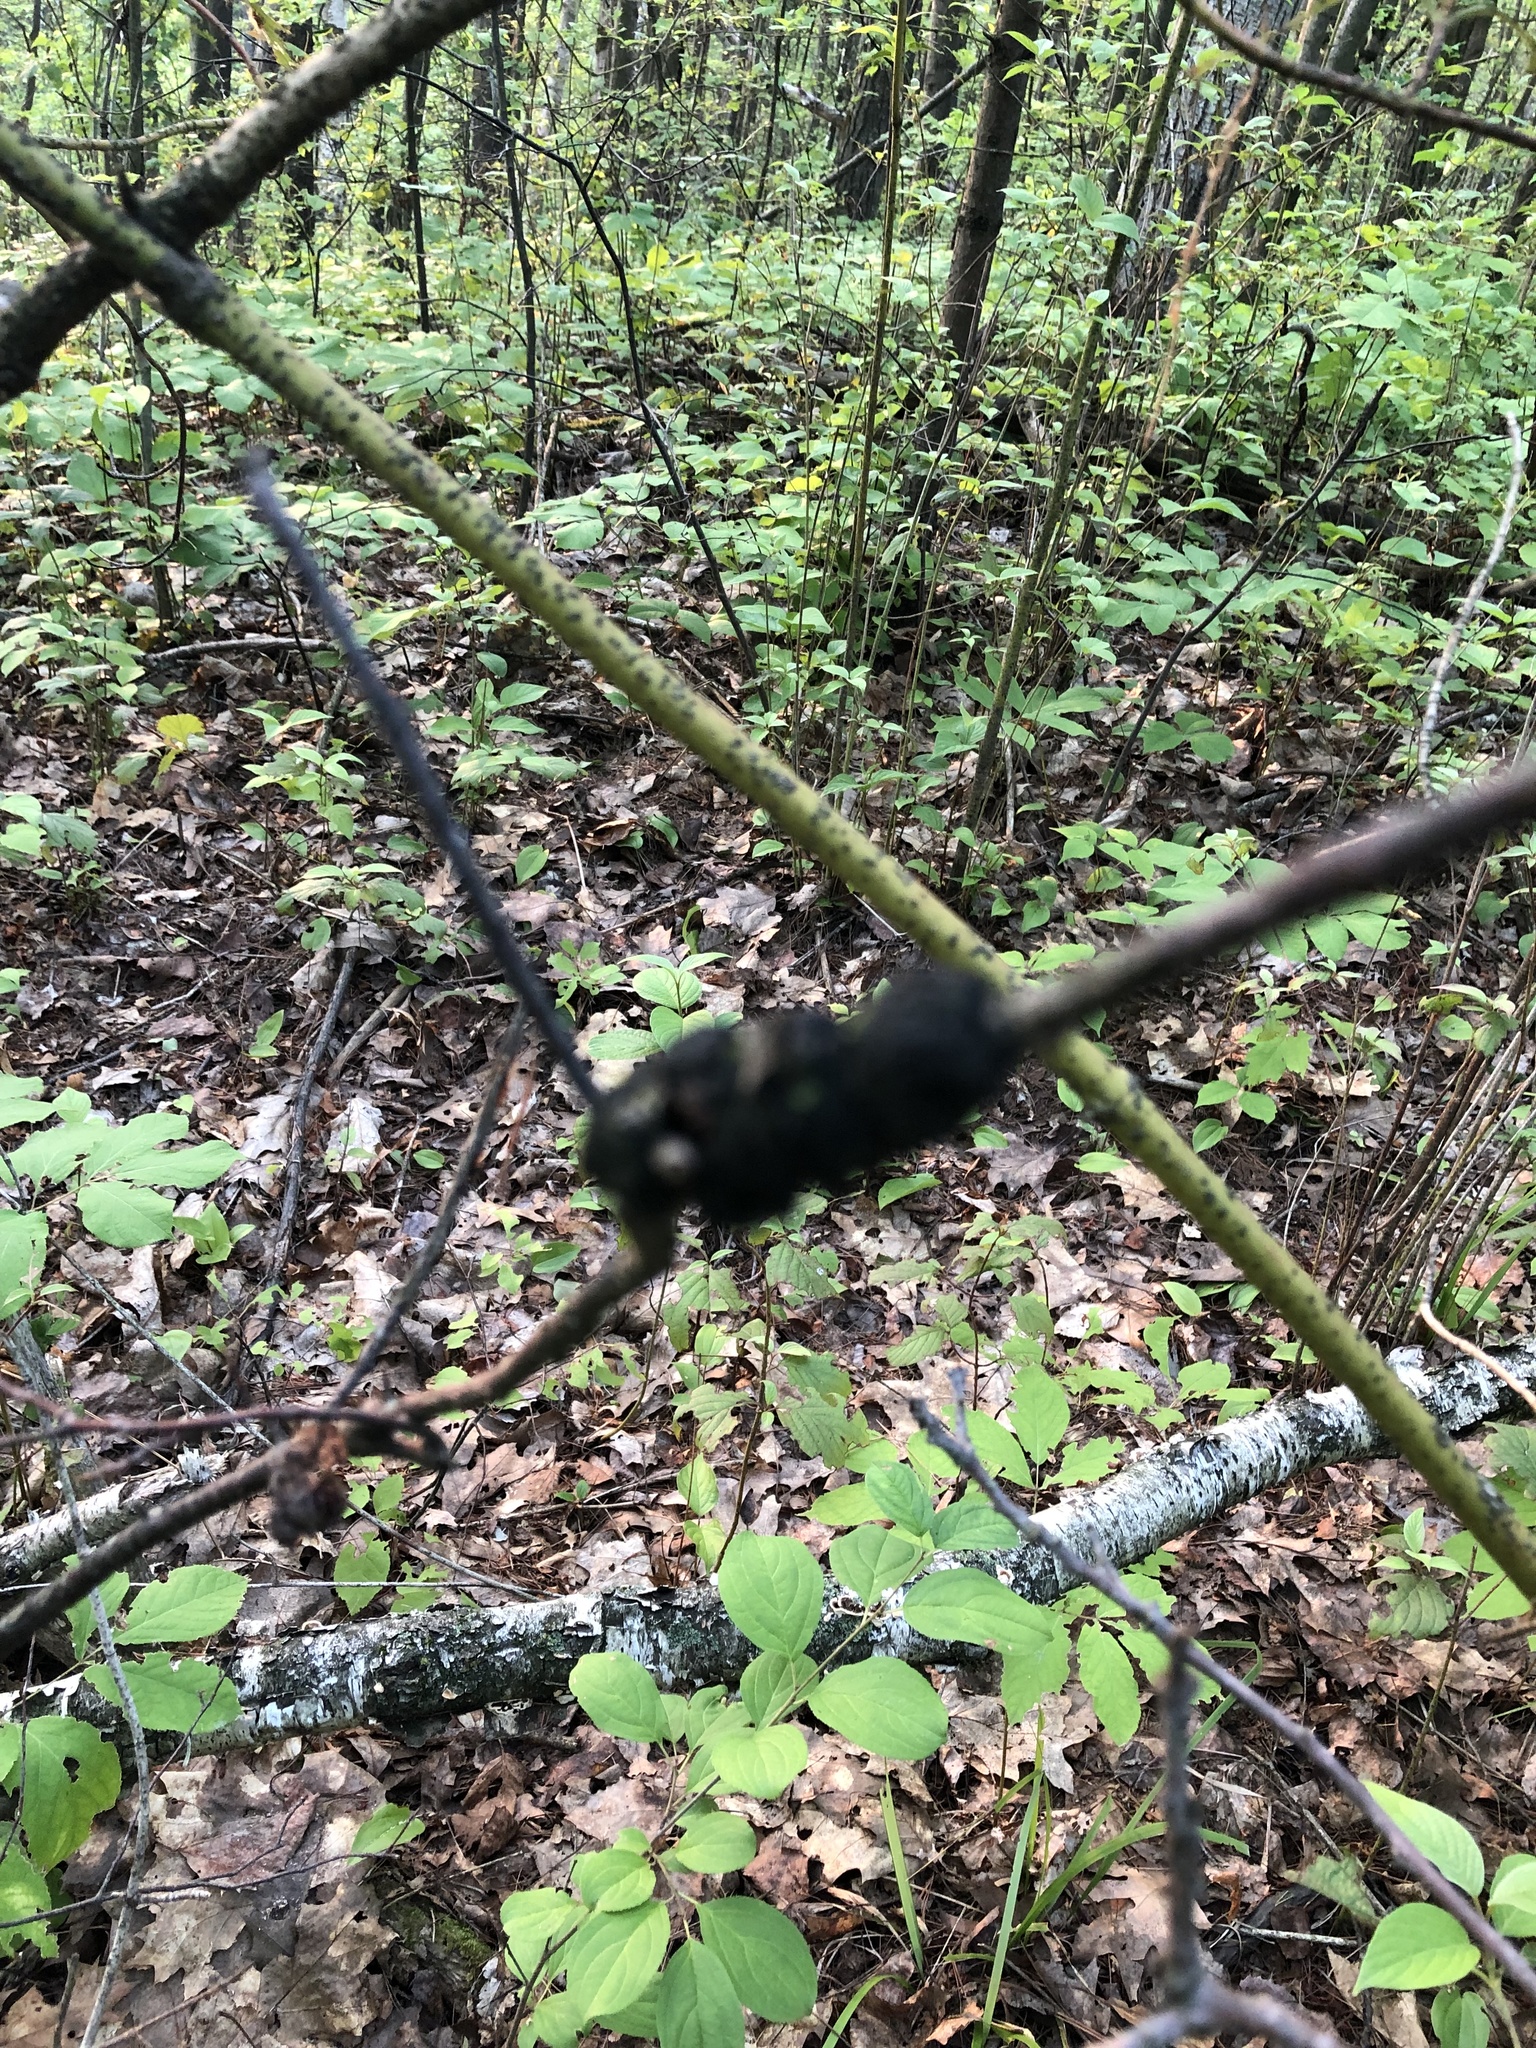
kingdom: Fungi
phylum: Ascomycota
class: Dothideomycetes
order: Venturiales
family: Venturiaceae
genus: Apiosporina
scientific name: Apiosporina morbosa
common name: Black knot
